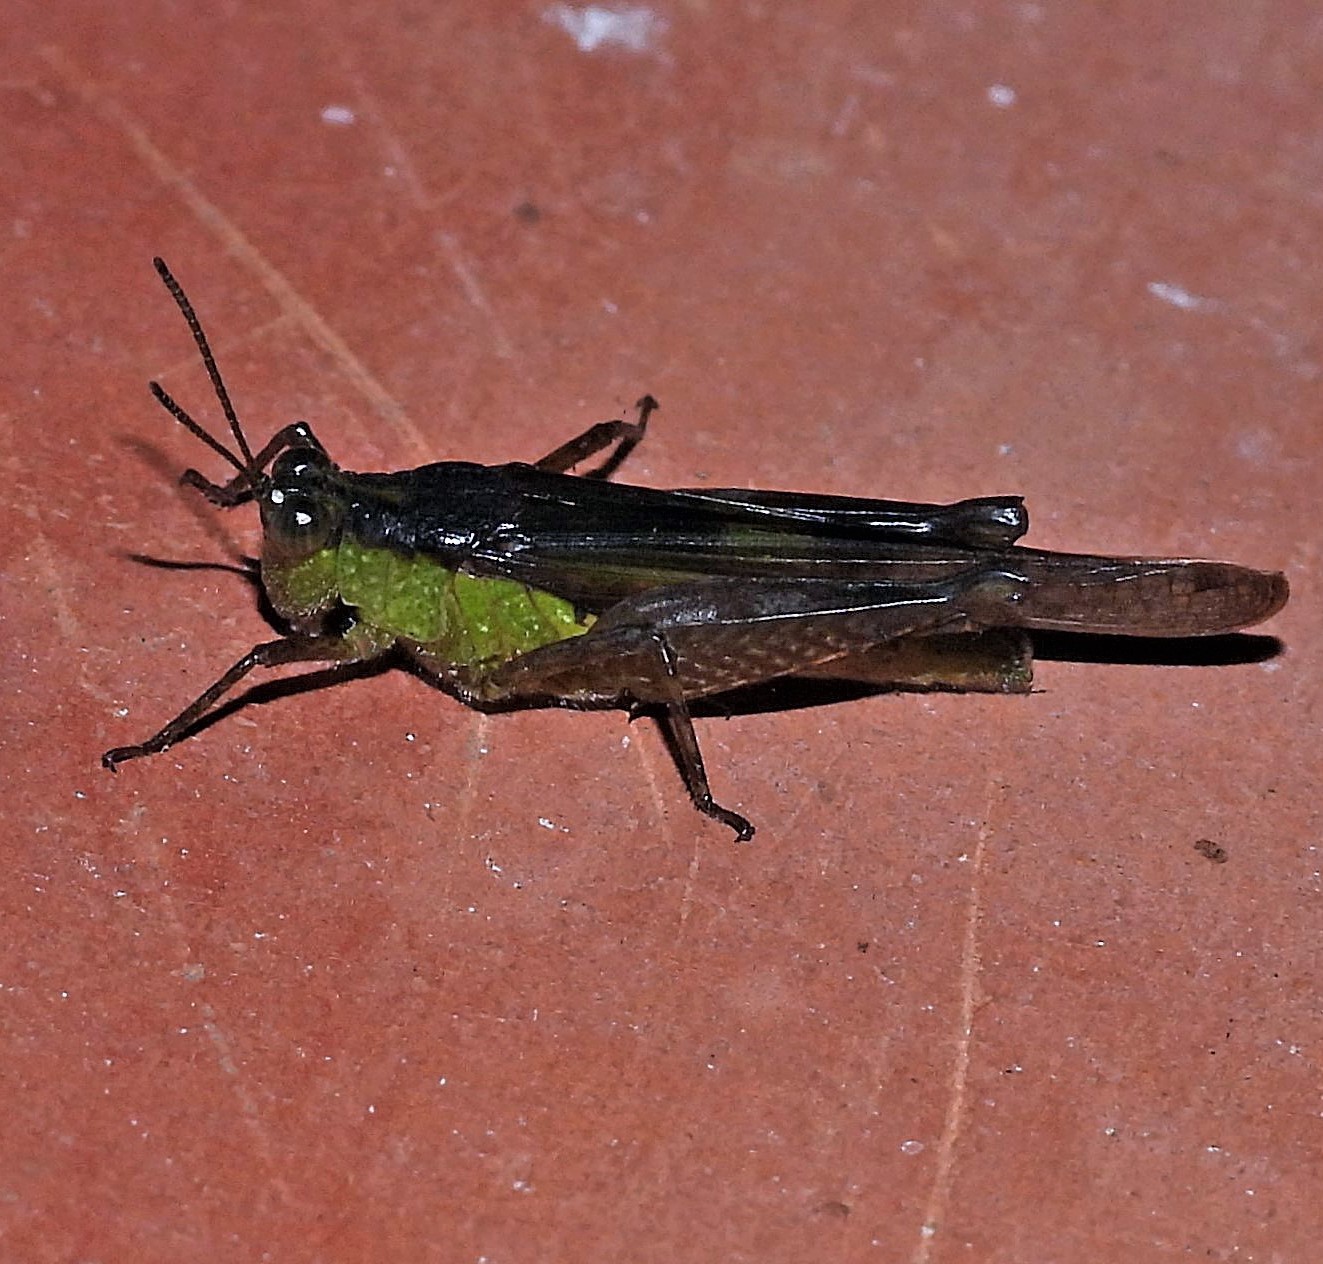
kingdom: Animalia
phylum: Arthropoda
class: Insecta
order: Orthoptera
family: Acrididae
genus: Paulinia
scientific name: Paulinia acuminata
